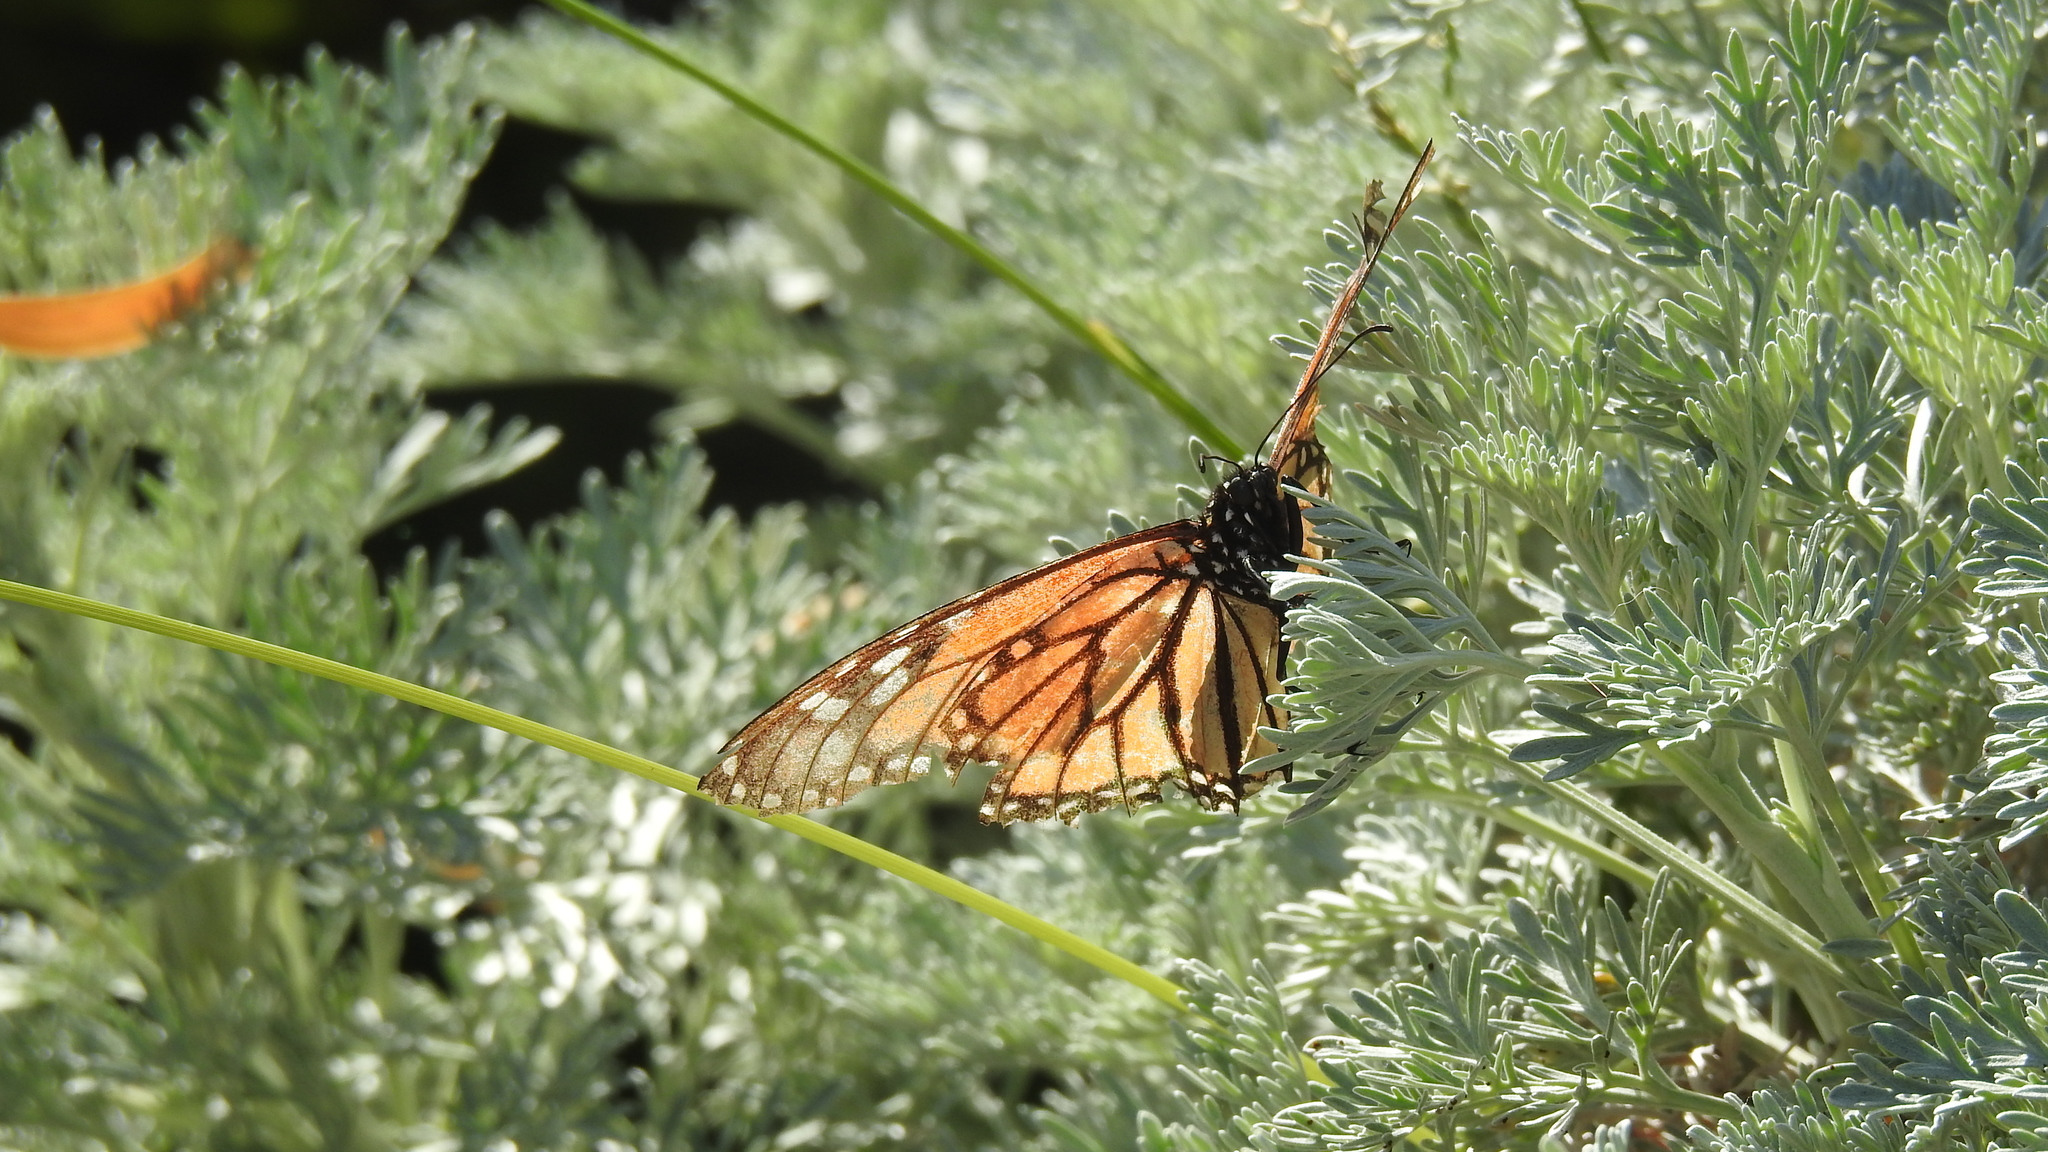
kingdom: Animalia
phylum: Arthropoda
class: Insecta
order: Lepidoptera
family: Nymphalidae
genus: Danaus
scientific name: Danaus plexippus
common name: Monarch
